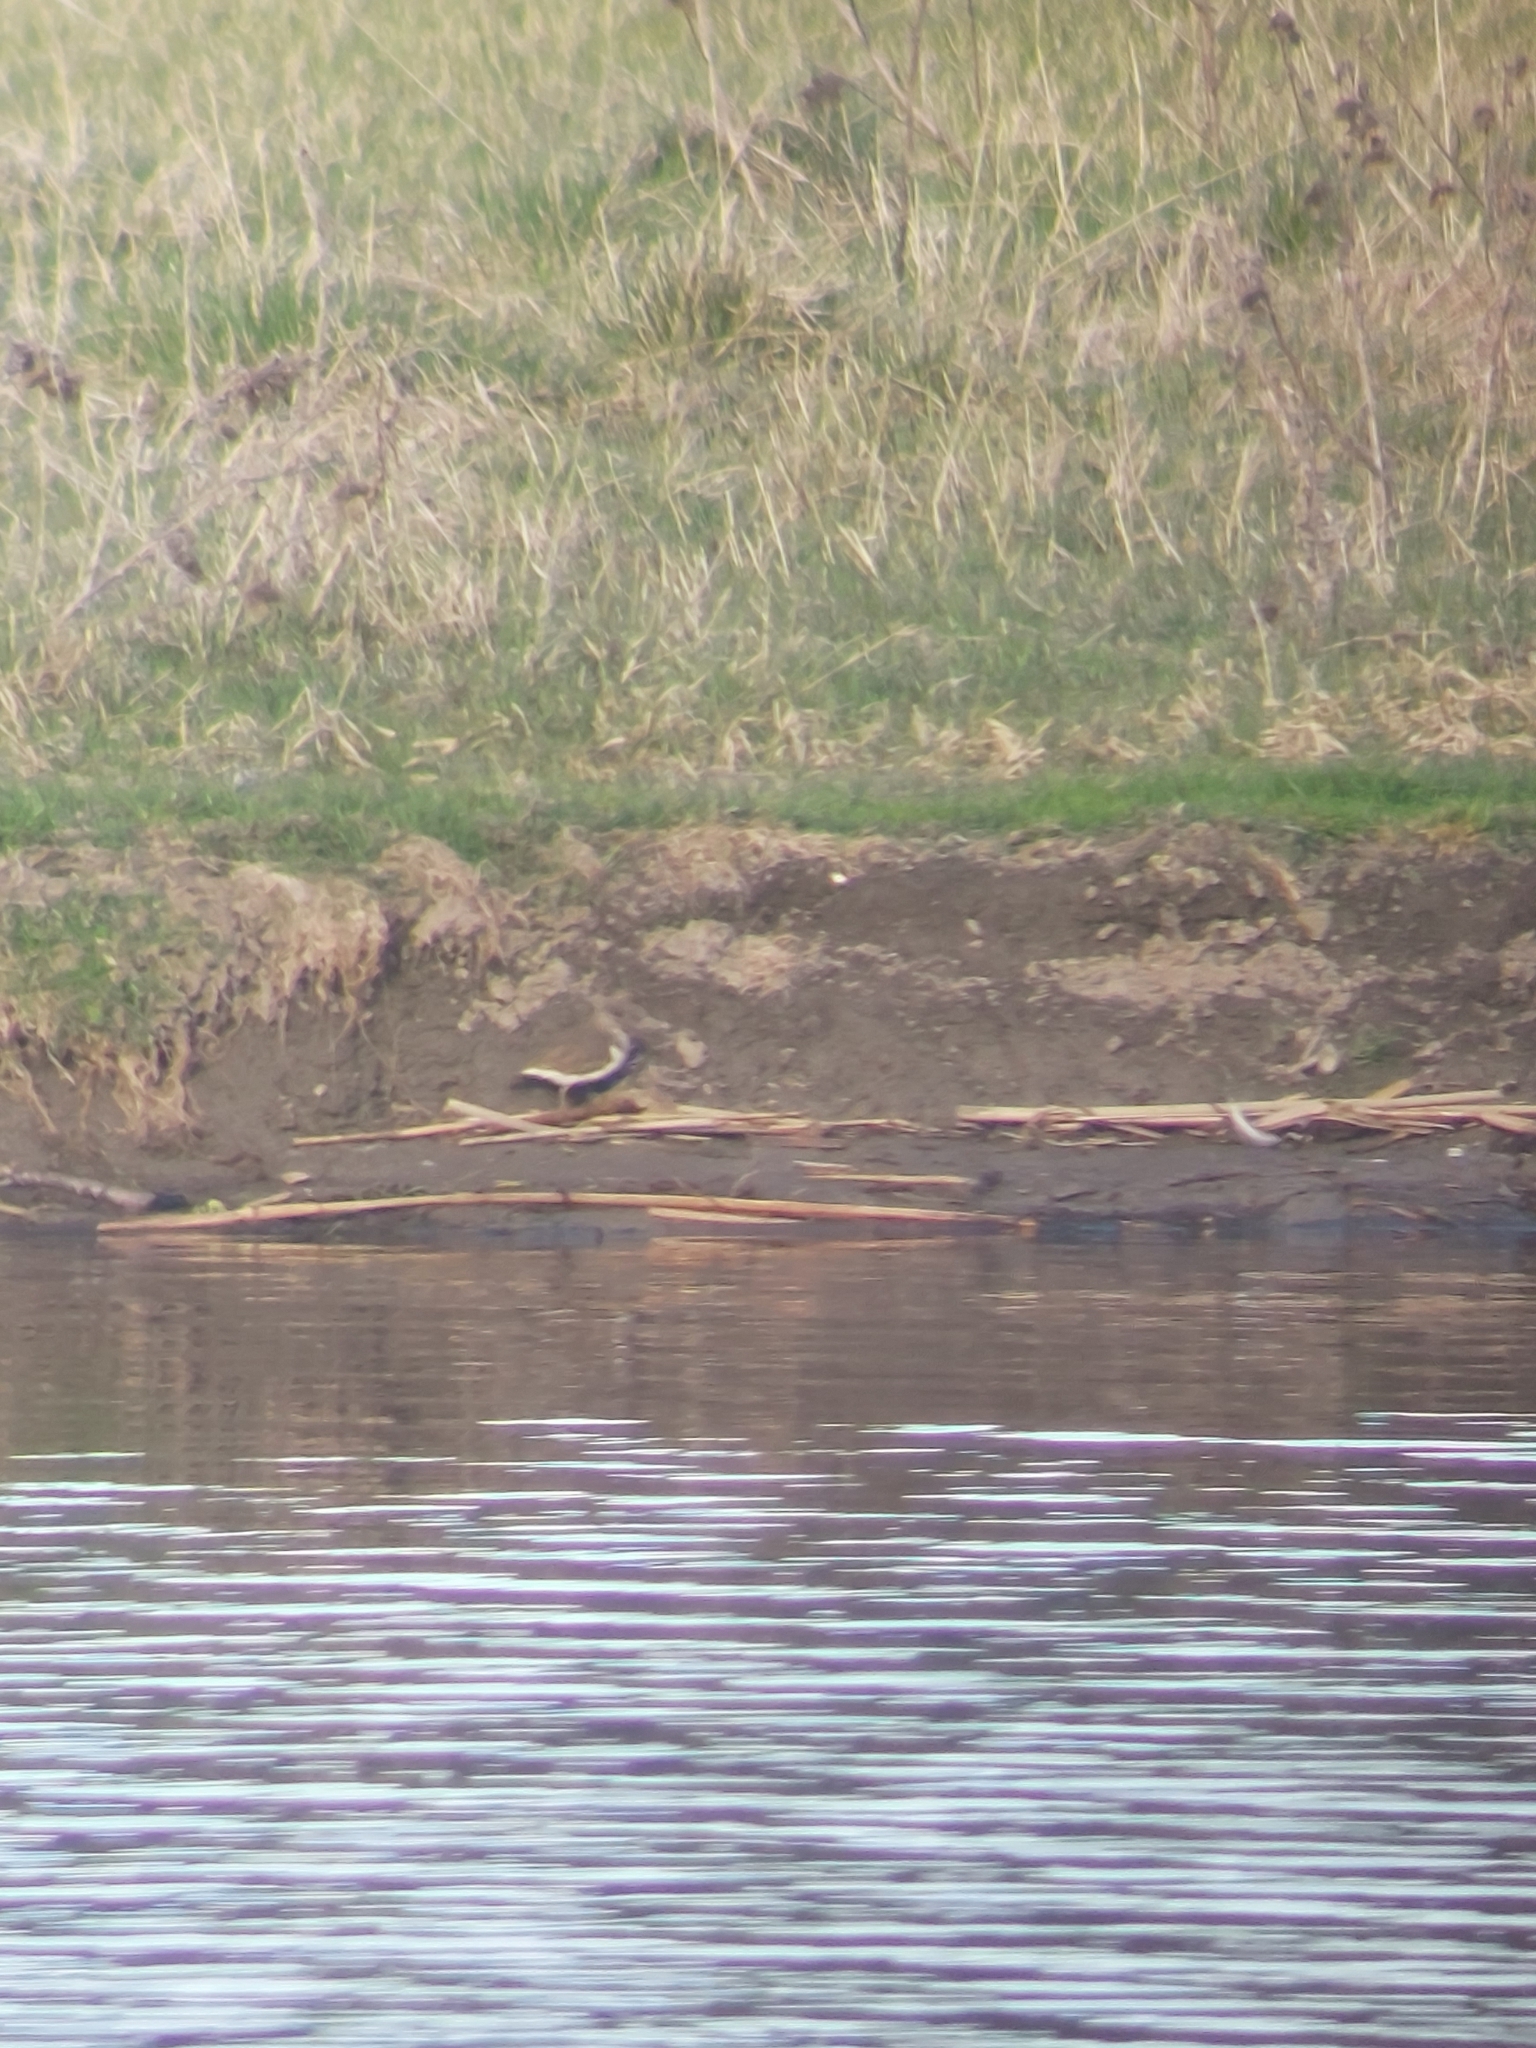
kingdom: Animalia
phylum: Chordata
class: Aves
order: Charadriiformes
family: Scolopacidae
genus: Actitis
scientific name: Actitis hypoleucos
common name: Common sandpiper
